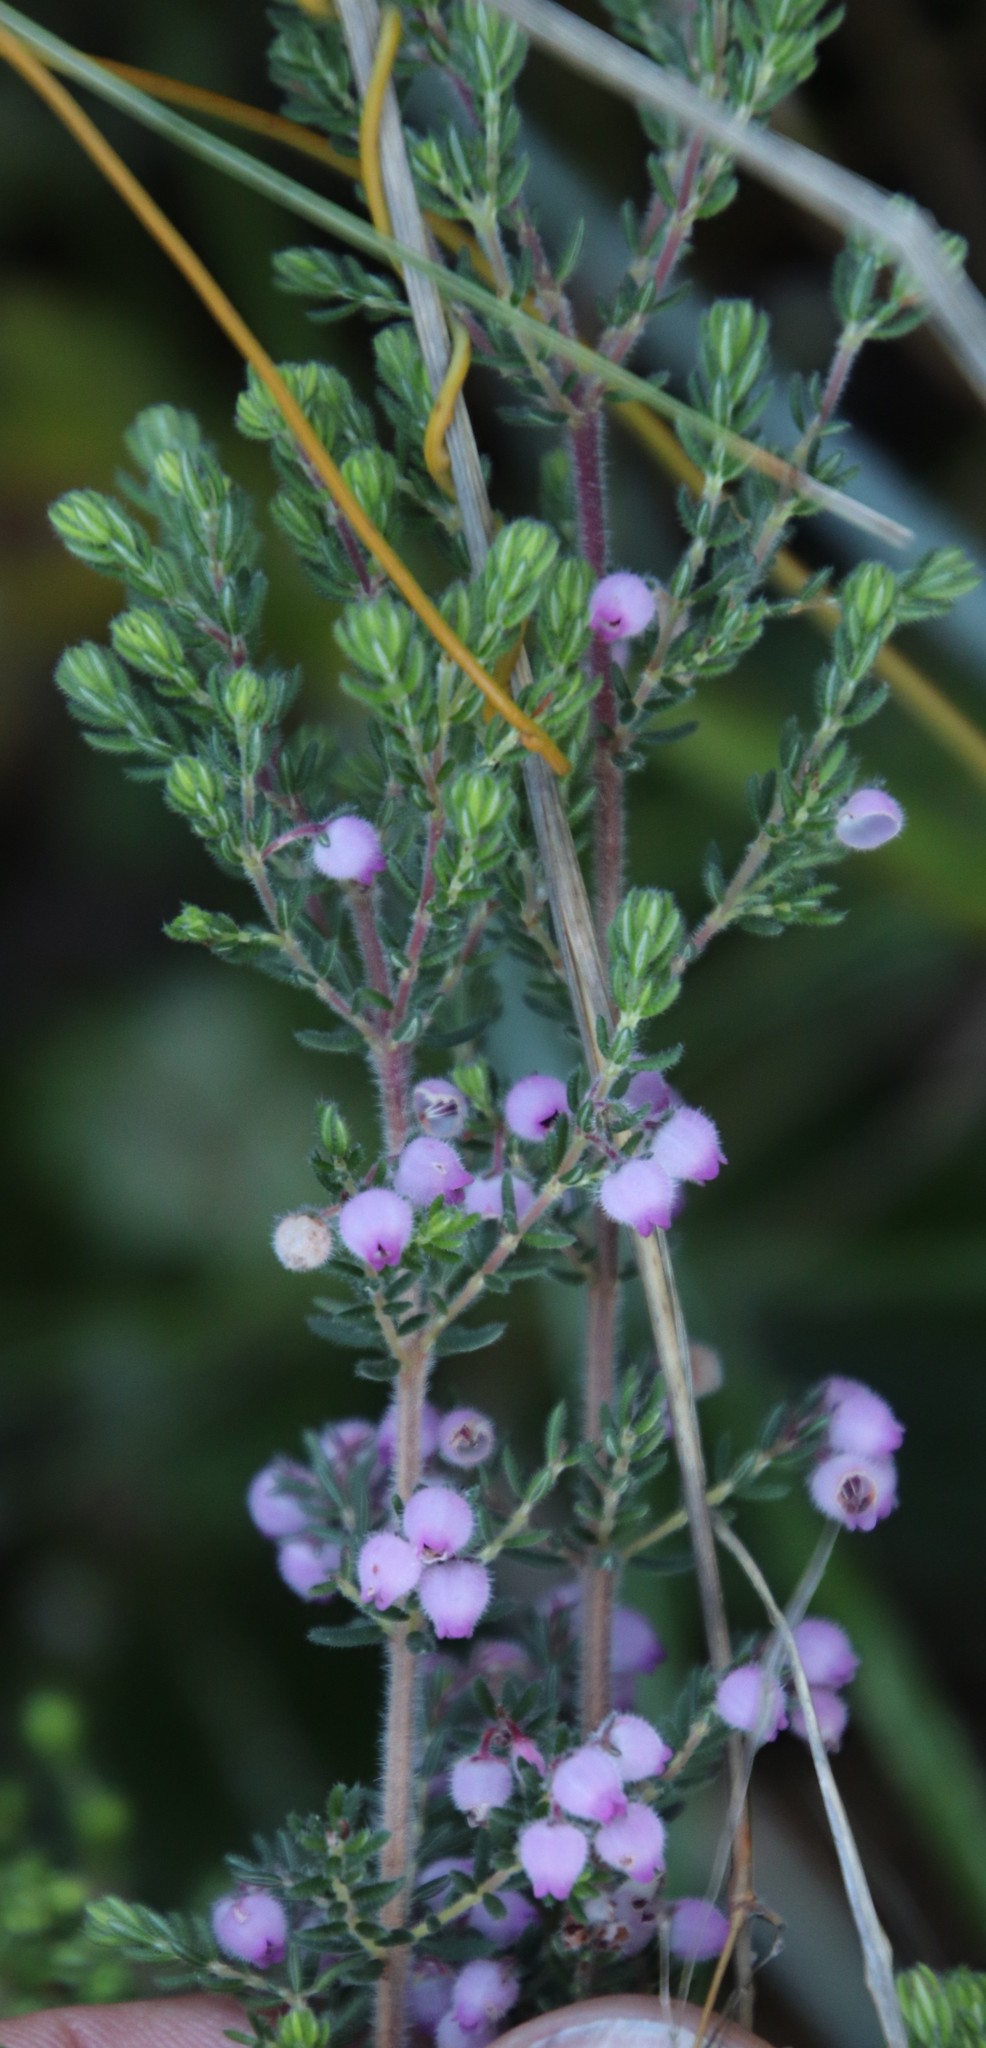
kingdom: Plantae
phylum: Tracheophyta
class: Magnoliopsida
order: Ericales
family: Ericaceae
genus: Erica
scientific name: Erica hirtiflora
